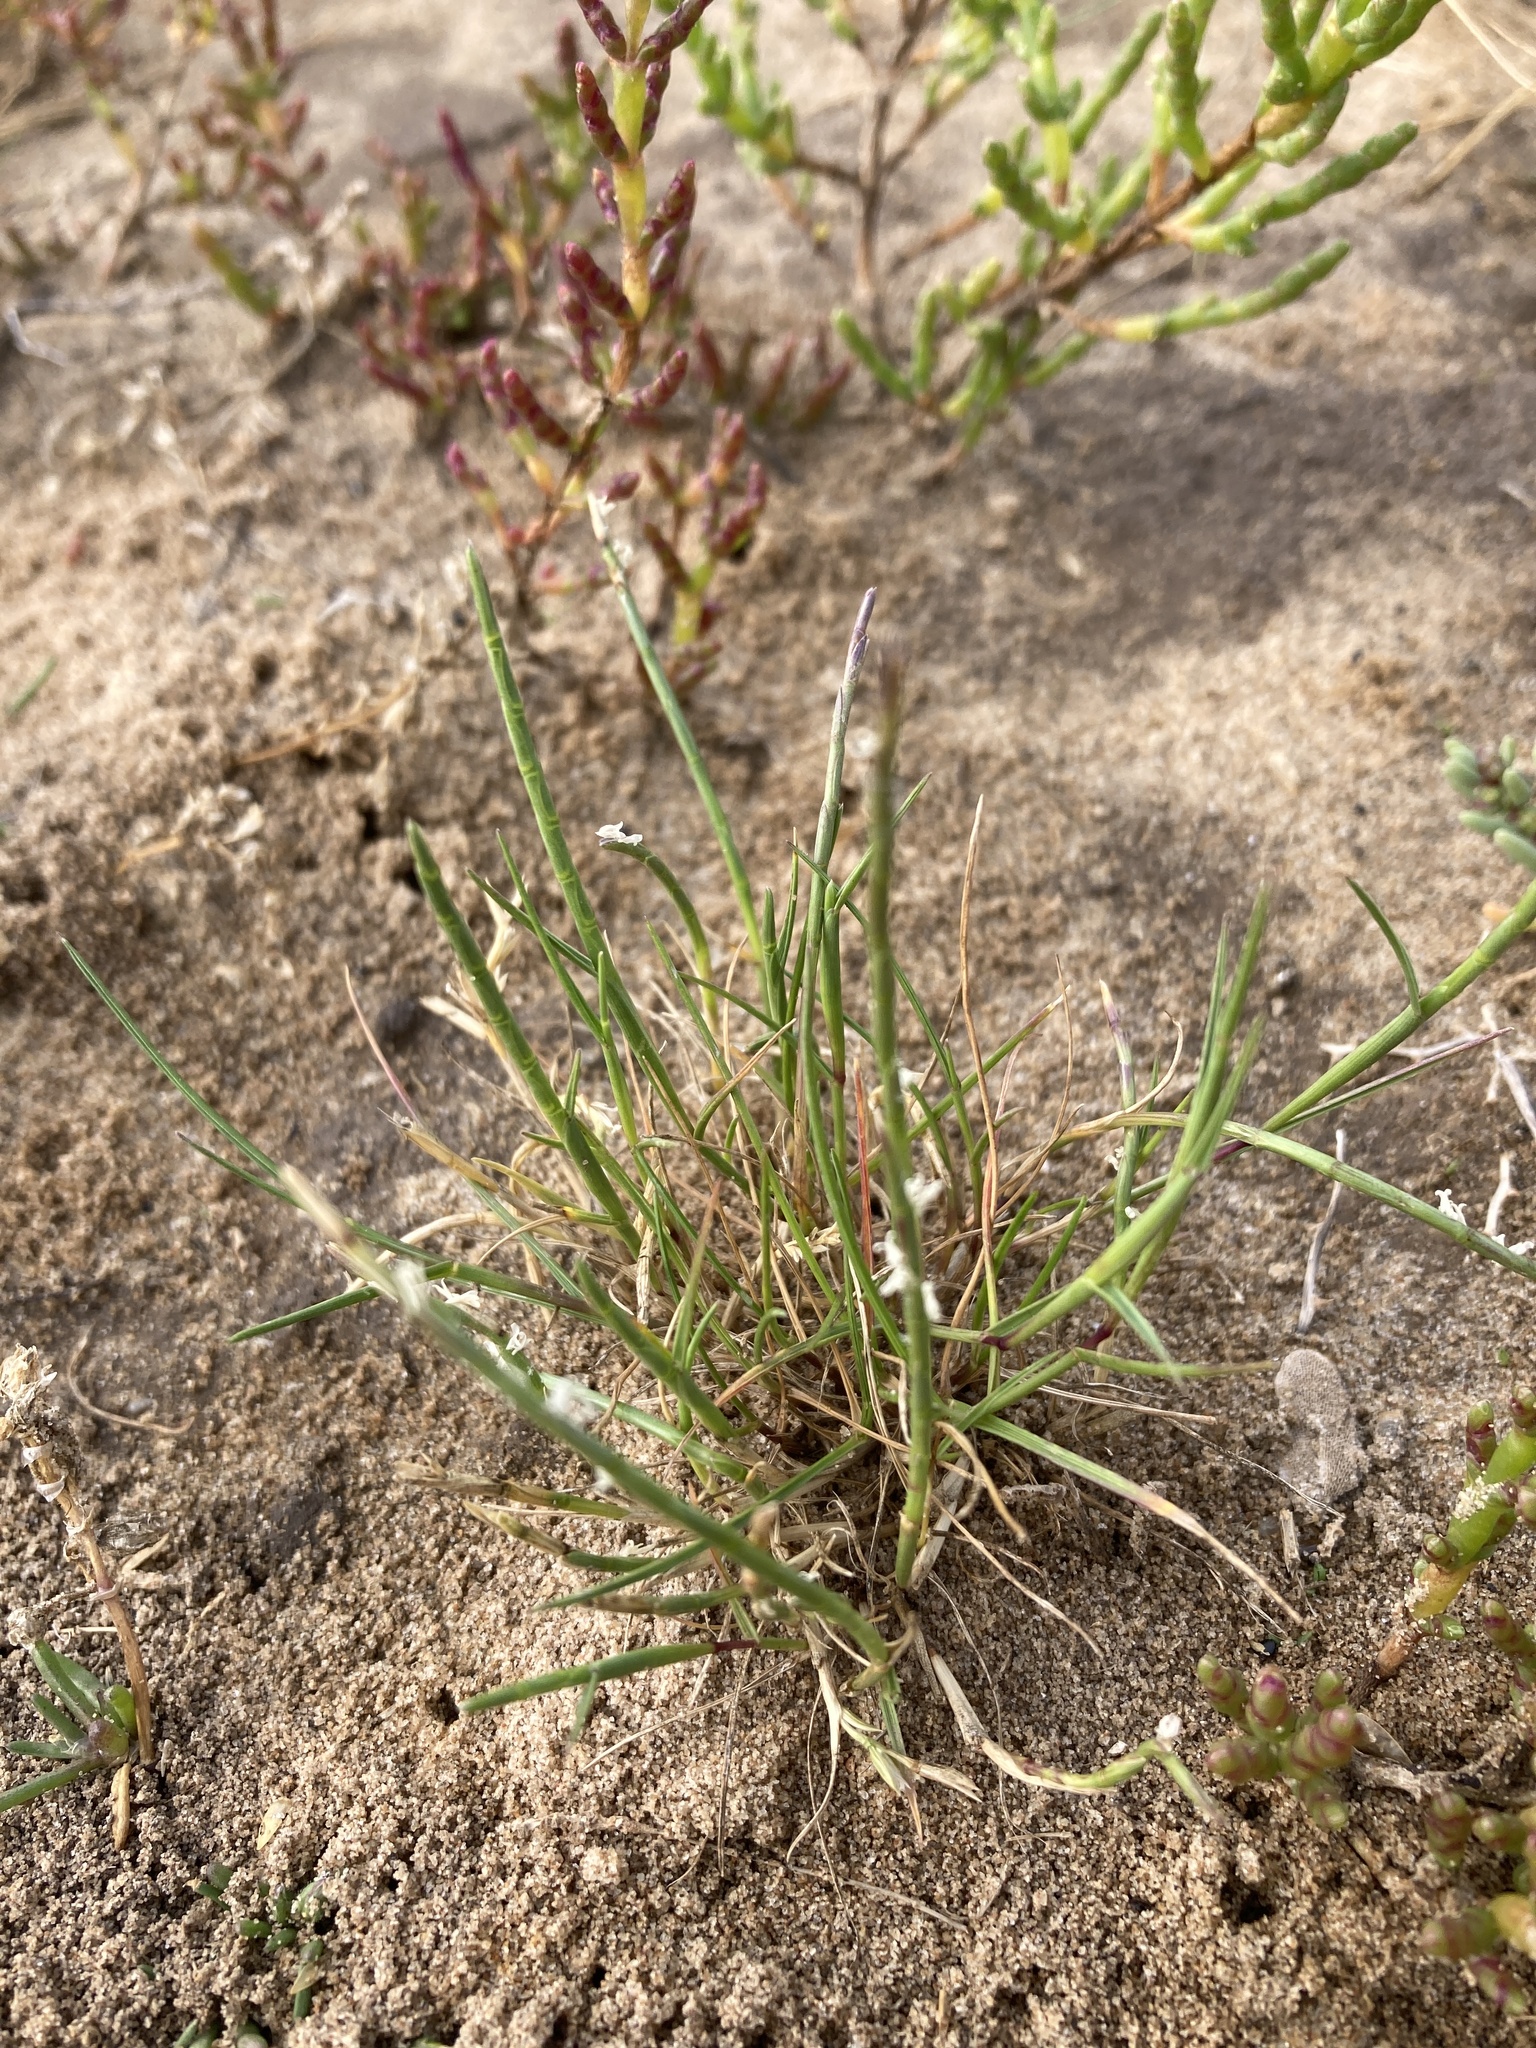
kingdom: Plantae
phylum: Tracheophyta
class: Liliopsida
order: Poales
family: Poaceae
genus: Parapholis
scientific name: Parapholis strigosa
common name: Hard-grass
